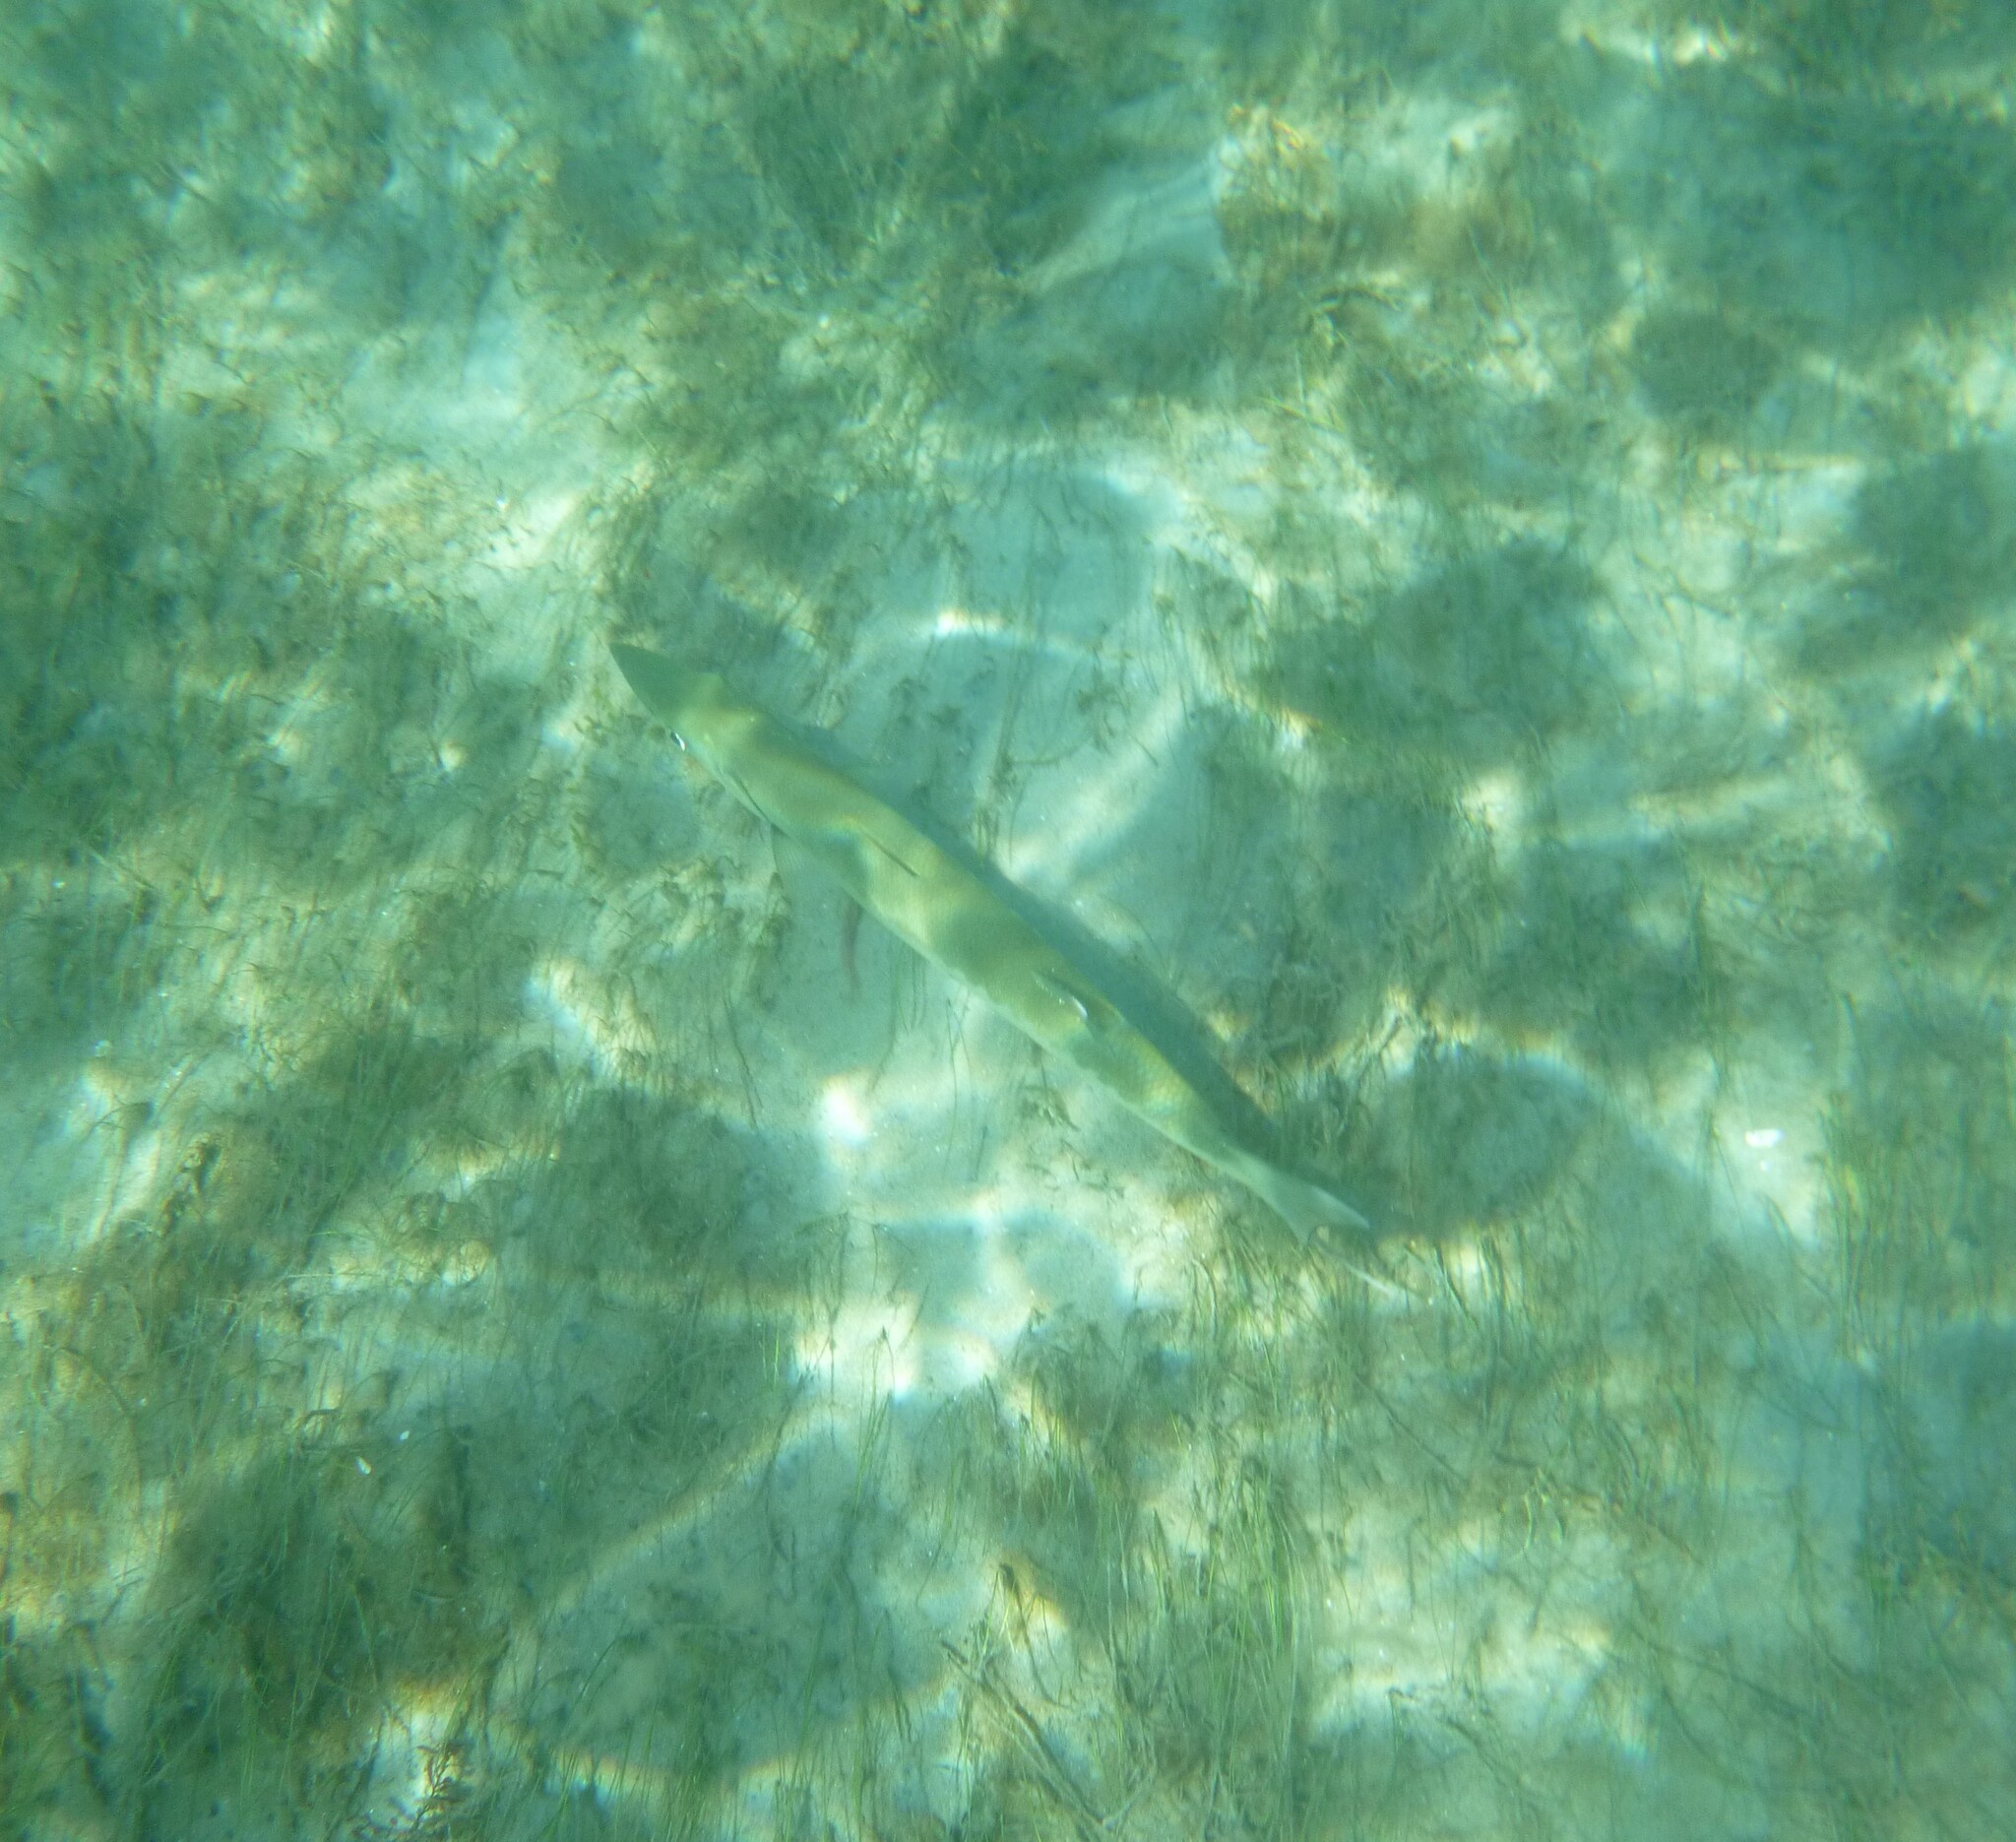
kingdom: Animalia
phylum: Chordata
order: Perciformes
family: Sphyraenidae
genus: Sphyraena
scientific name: Sphyraena barracuda
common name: Great barracuda
